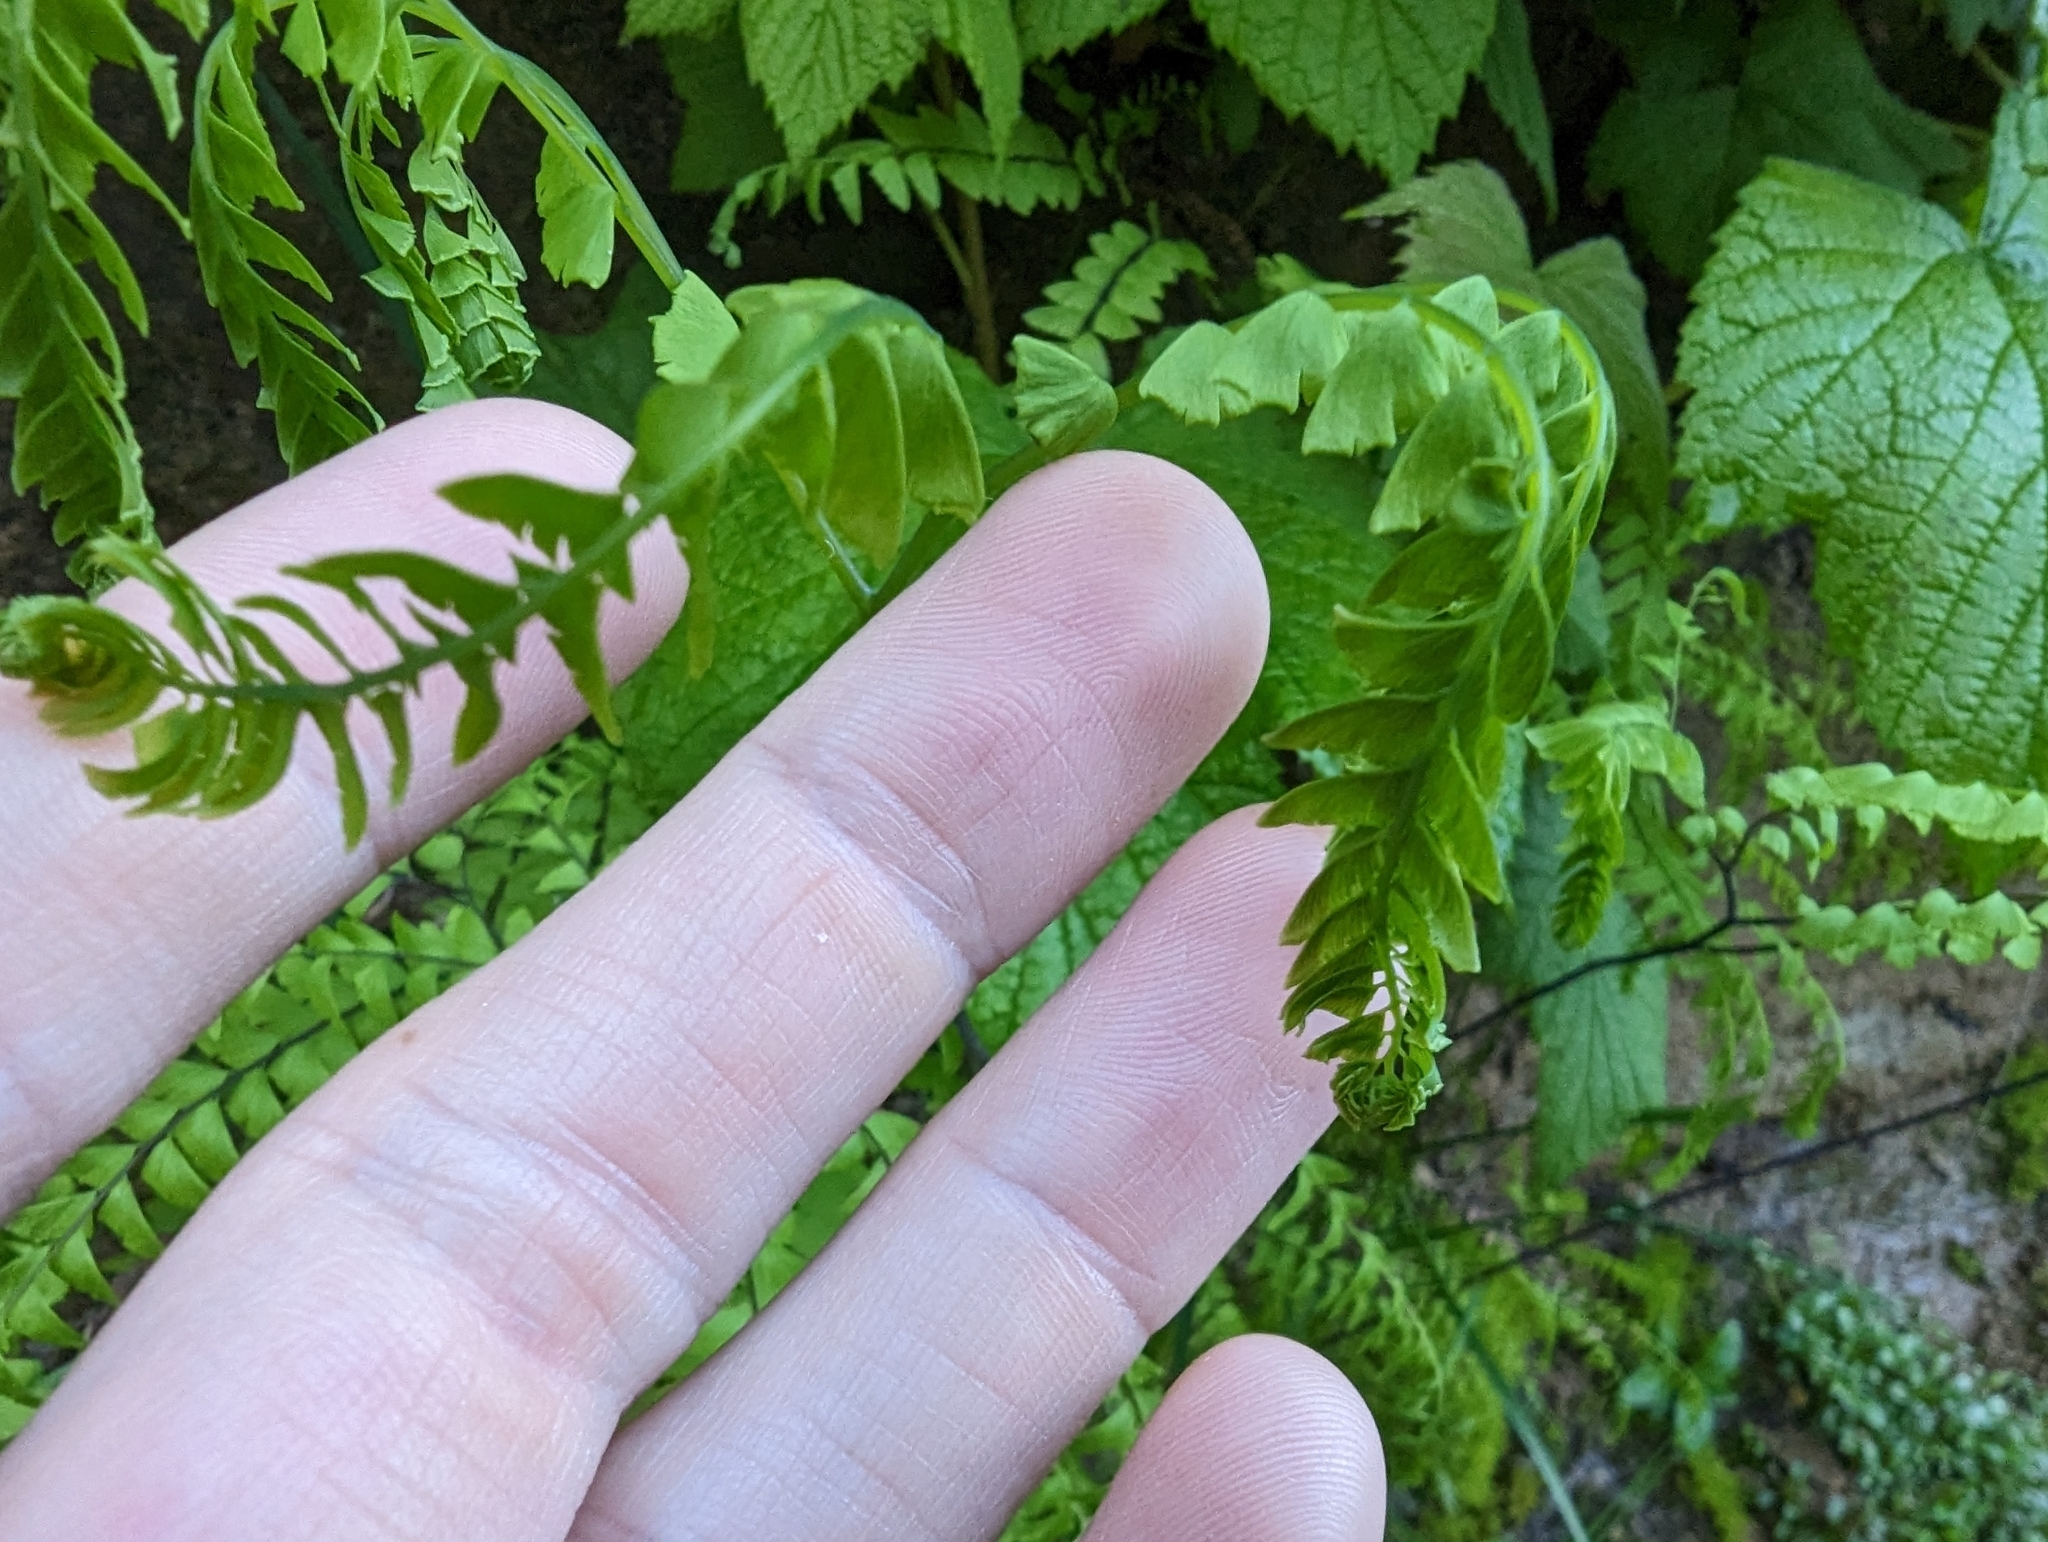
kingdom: Plantae
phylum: Tracheophyta
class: Polypodiopsida
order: Polypodiales
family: Pteridaceae
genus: Adiantum
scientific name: Adiantum aleuticum
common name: Aleutian maidenhair fern
